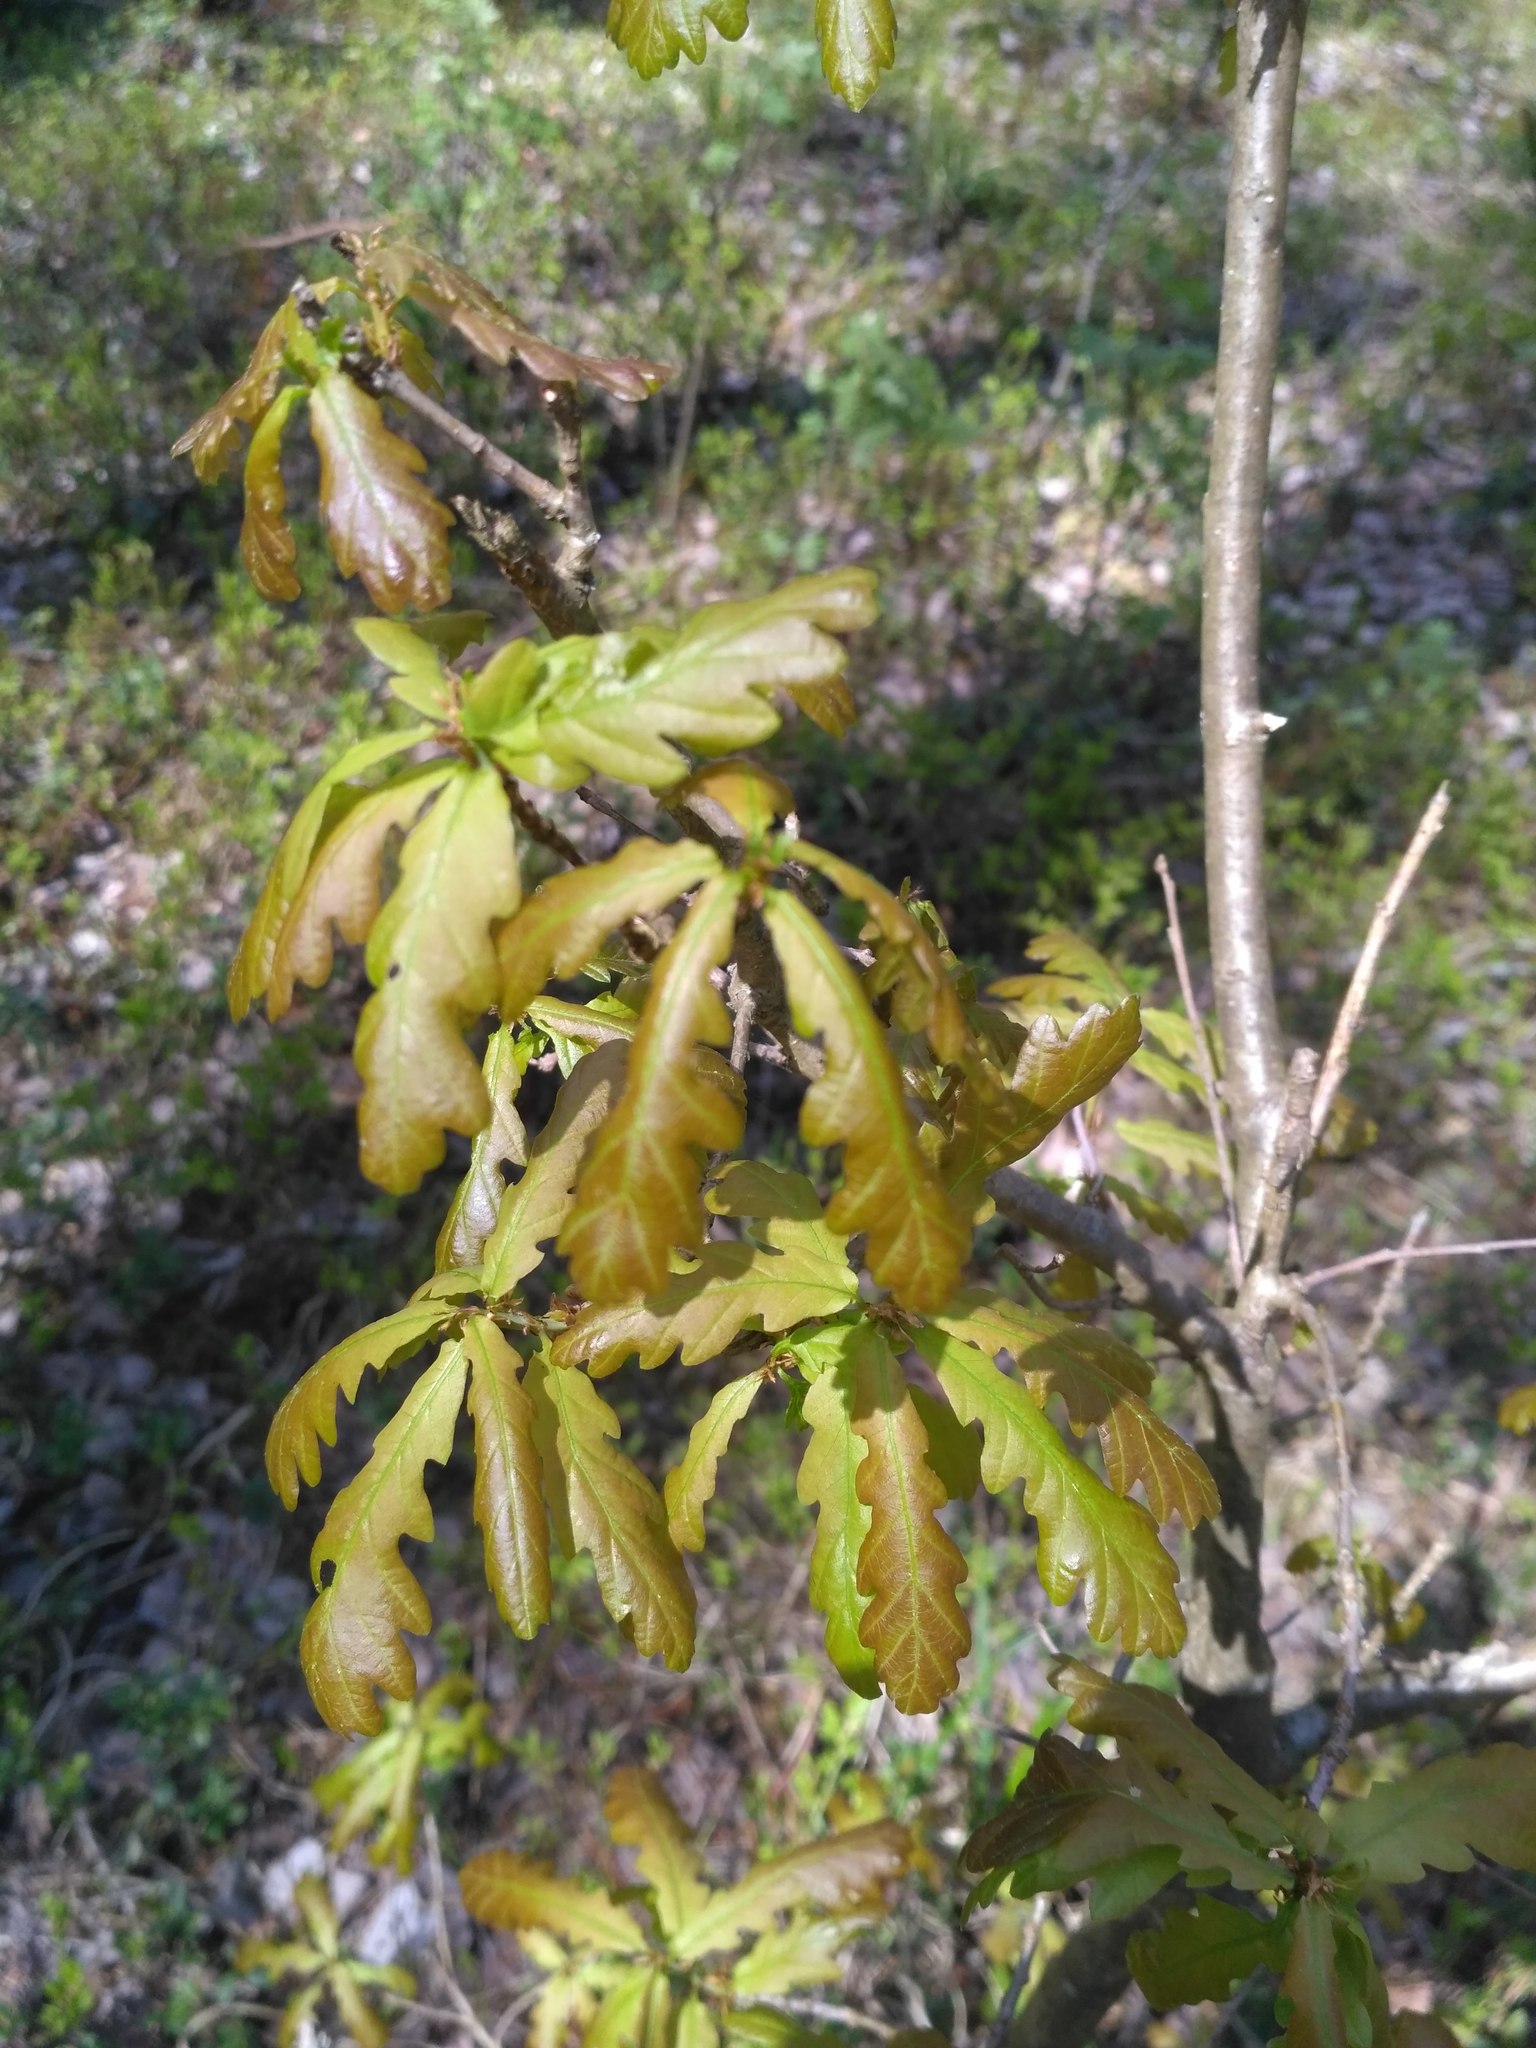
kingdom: Plantae
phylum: Tracheophyta
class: Magnoliopsida
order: Fagales
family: Fagaceae
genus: Quercus
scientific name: Quercus robur
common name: Pedunculate oak
